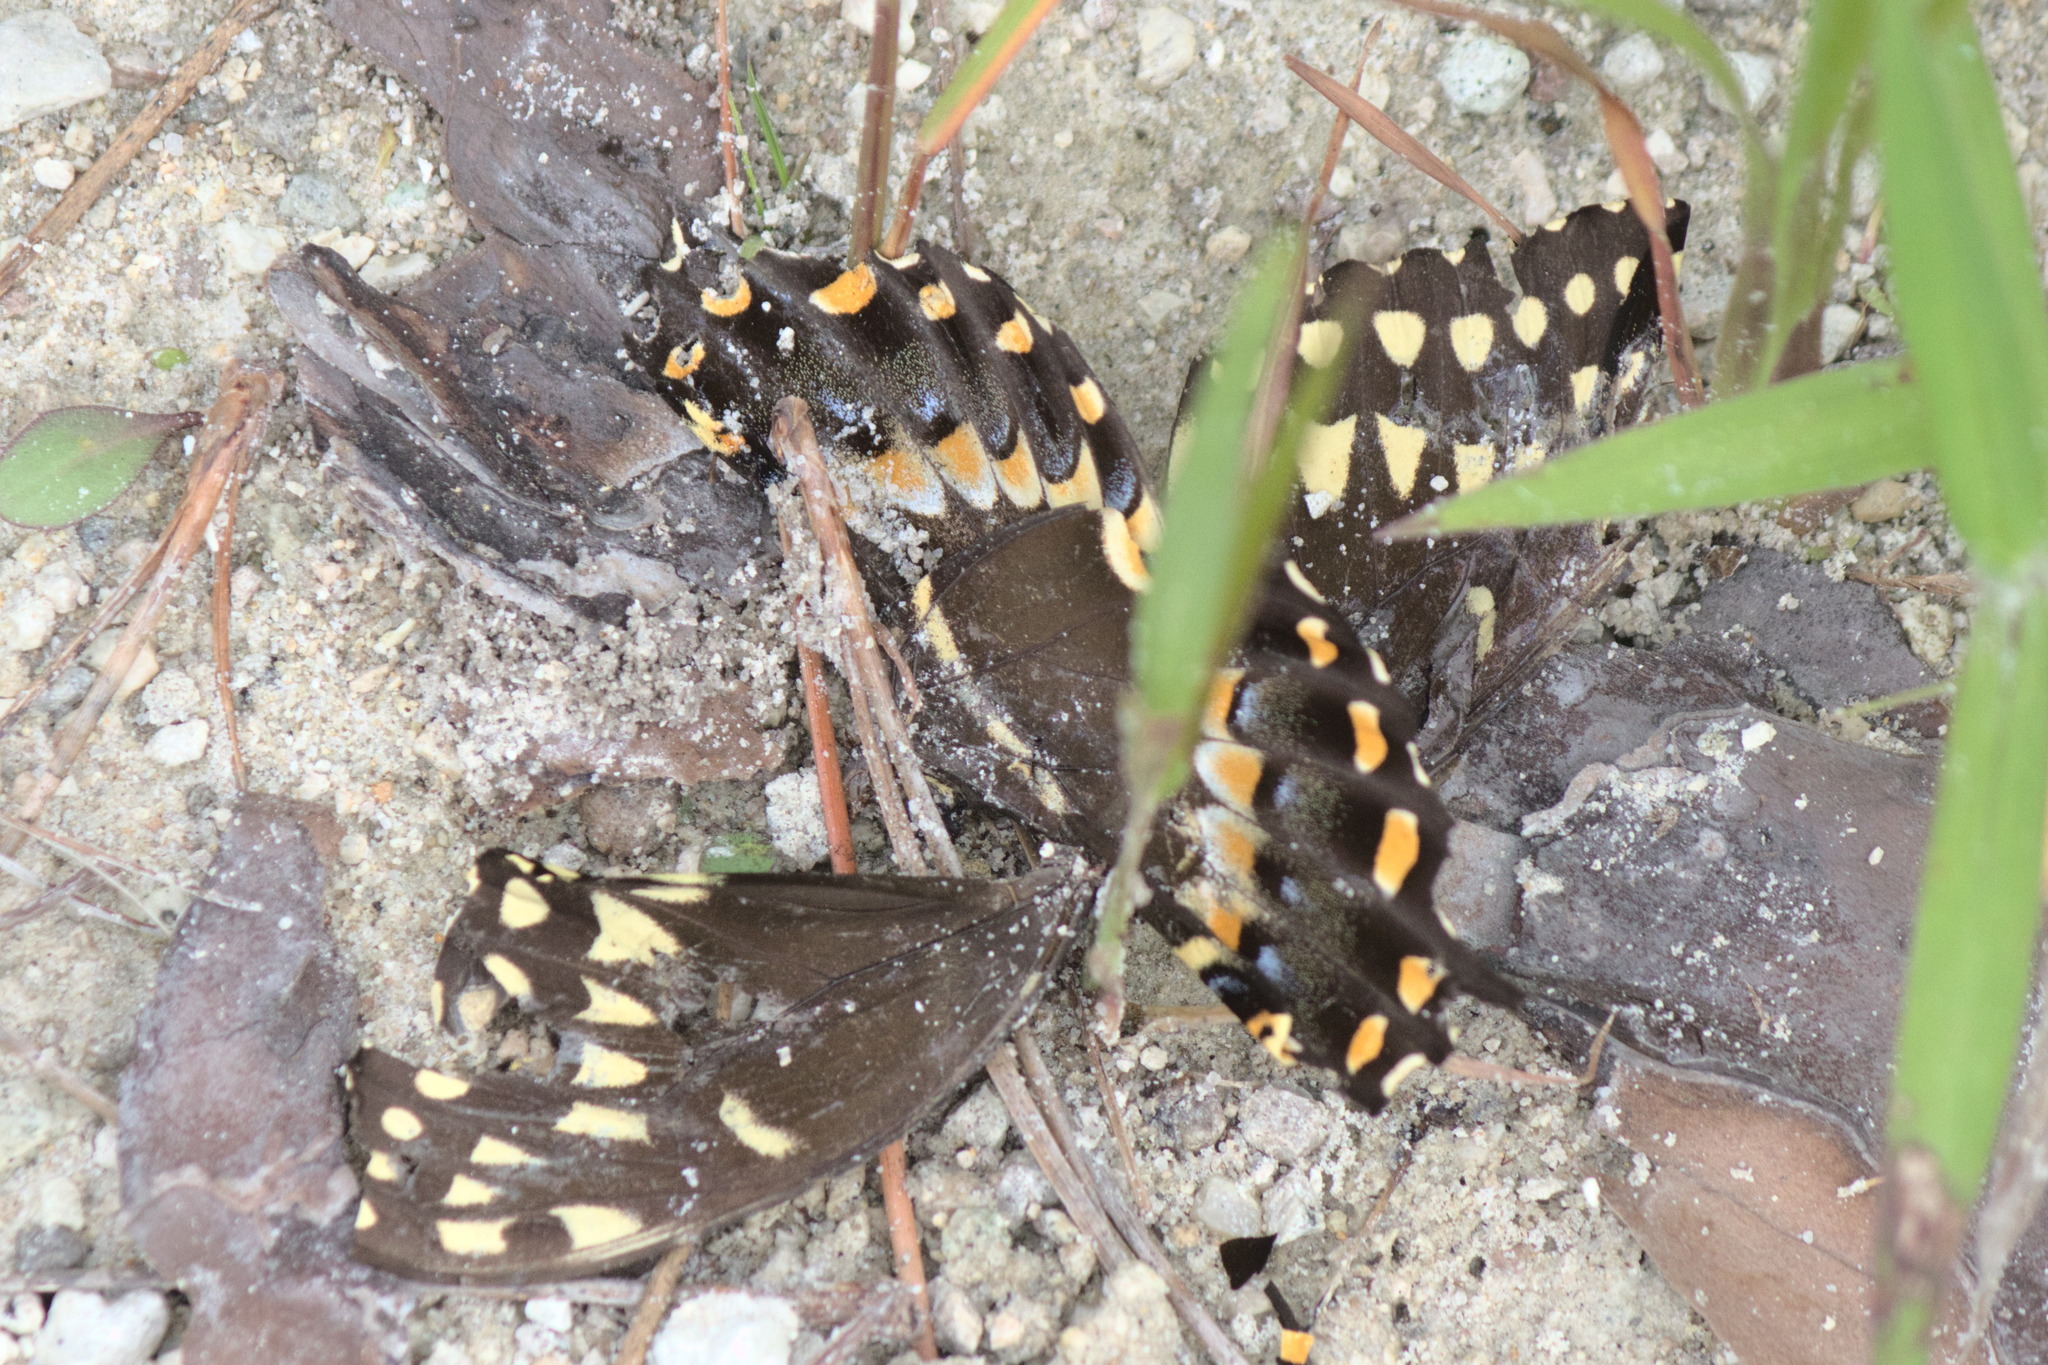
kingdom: Animalia
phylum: Arthropoda
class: Insecta
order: Lepidoptera
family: Papilionidae
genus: Papilio
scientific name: Papilio palamedes
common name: Palamedes swallowtail
